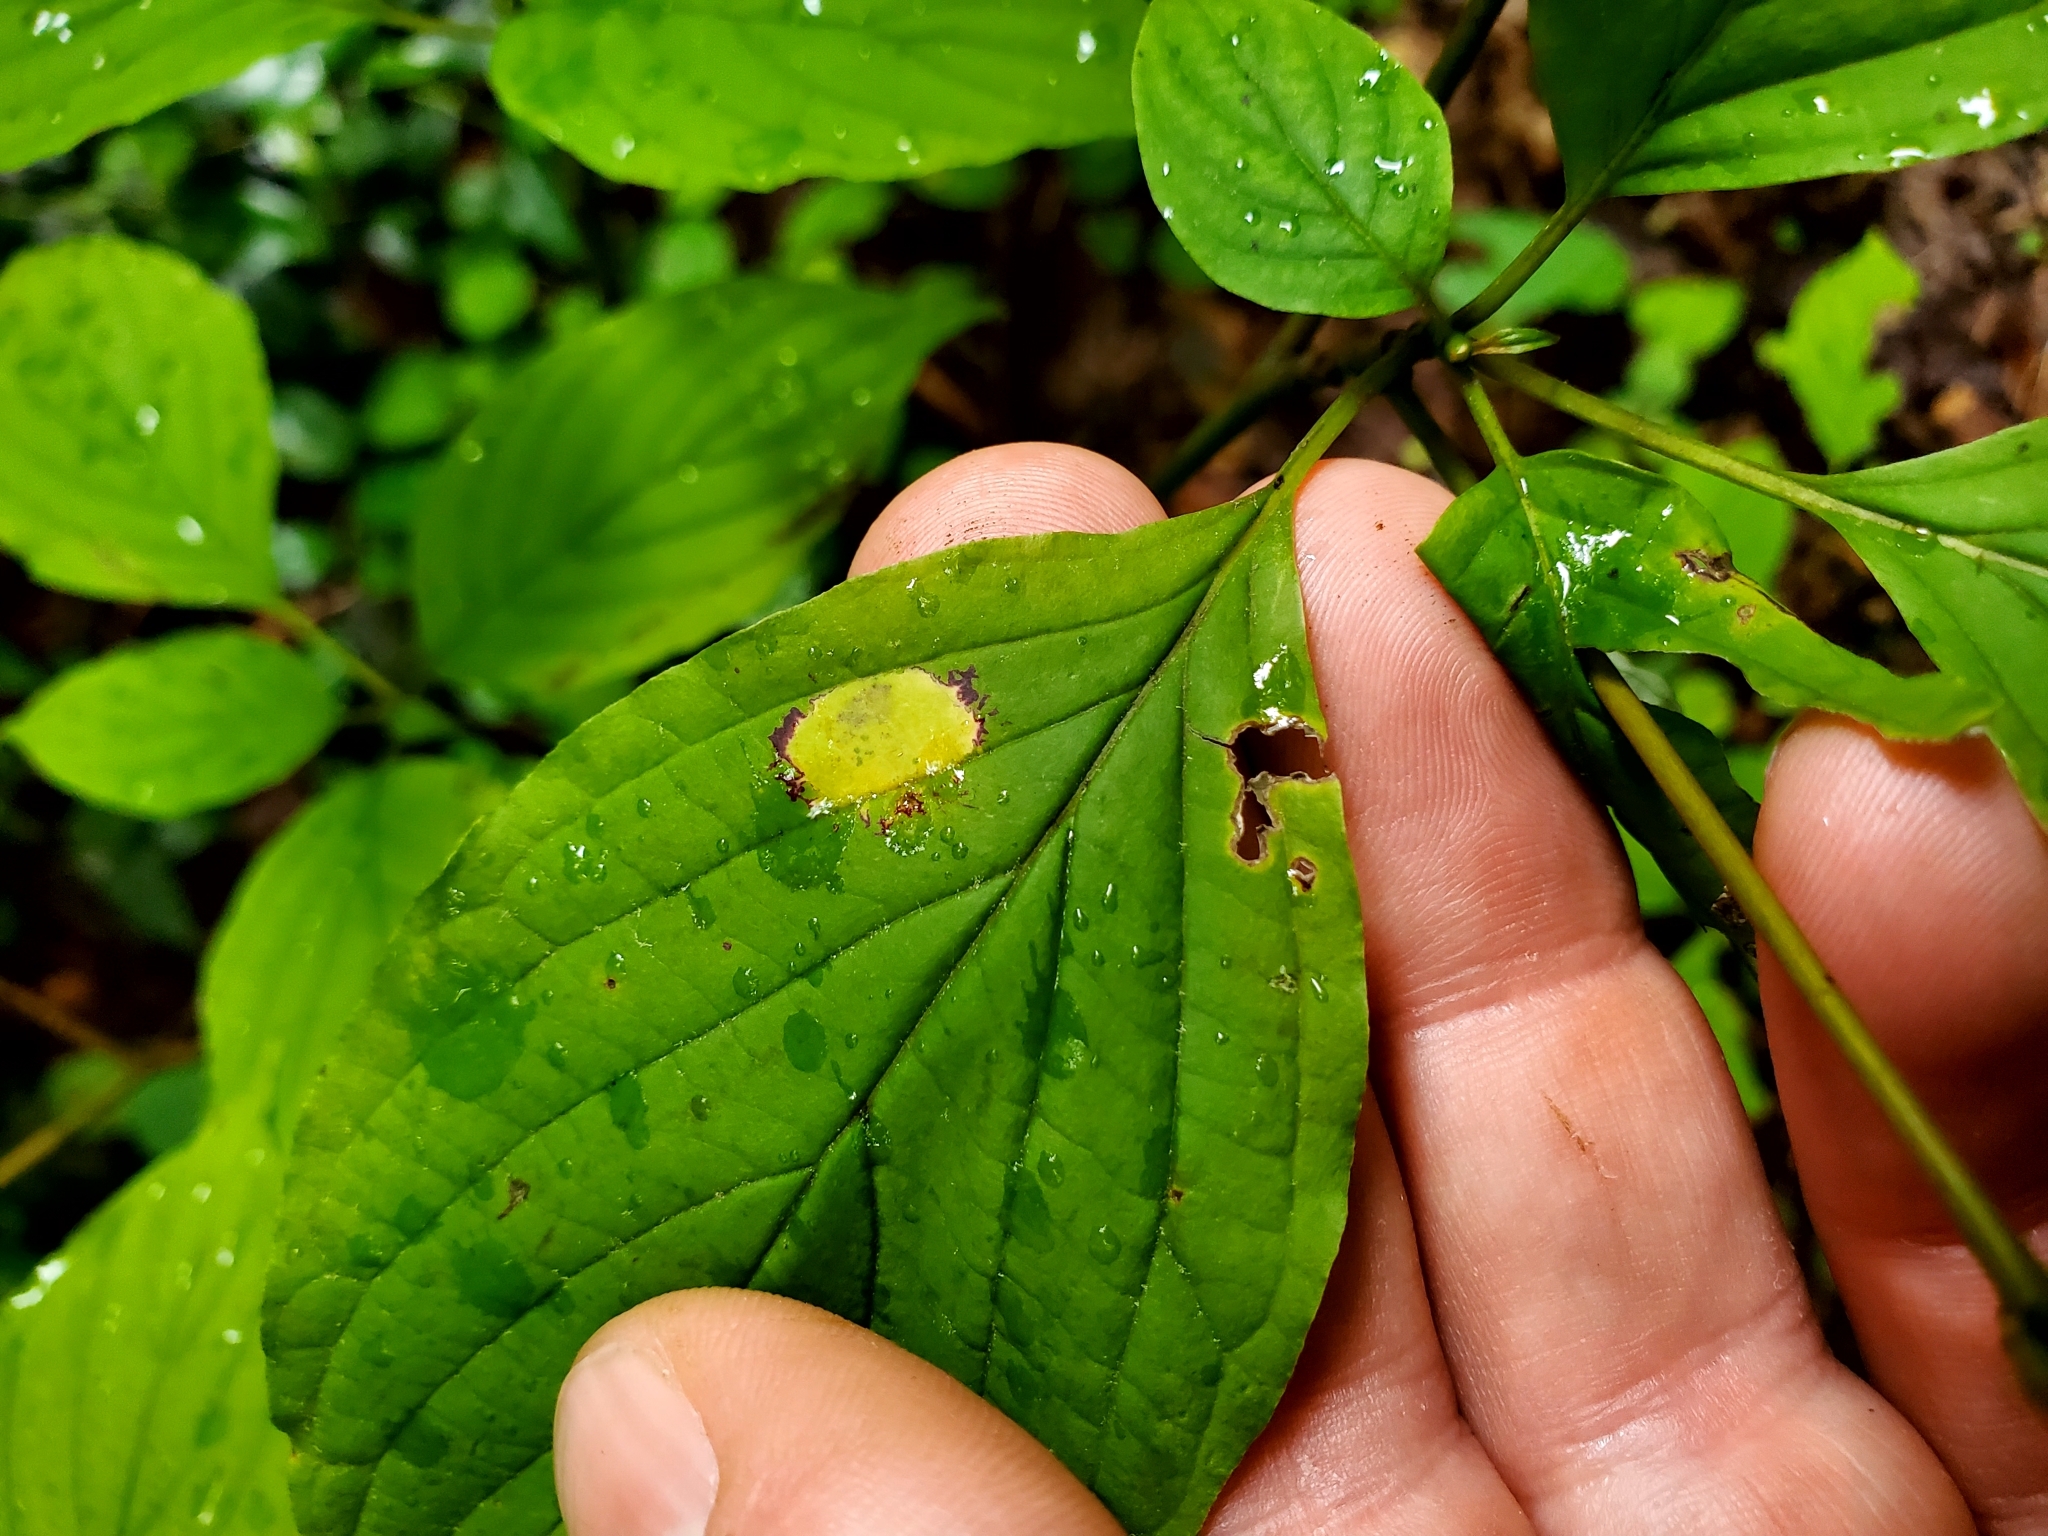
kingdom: Animalia
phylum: Arthropoda
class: Insecta
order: Diptera
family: Cecidomyiidae
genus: Parallelodiplosis
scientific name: Parallelodiplosis subtruncata
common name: Dogwood eyespot gall midge
